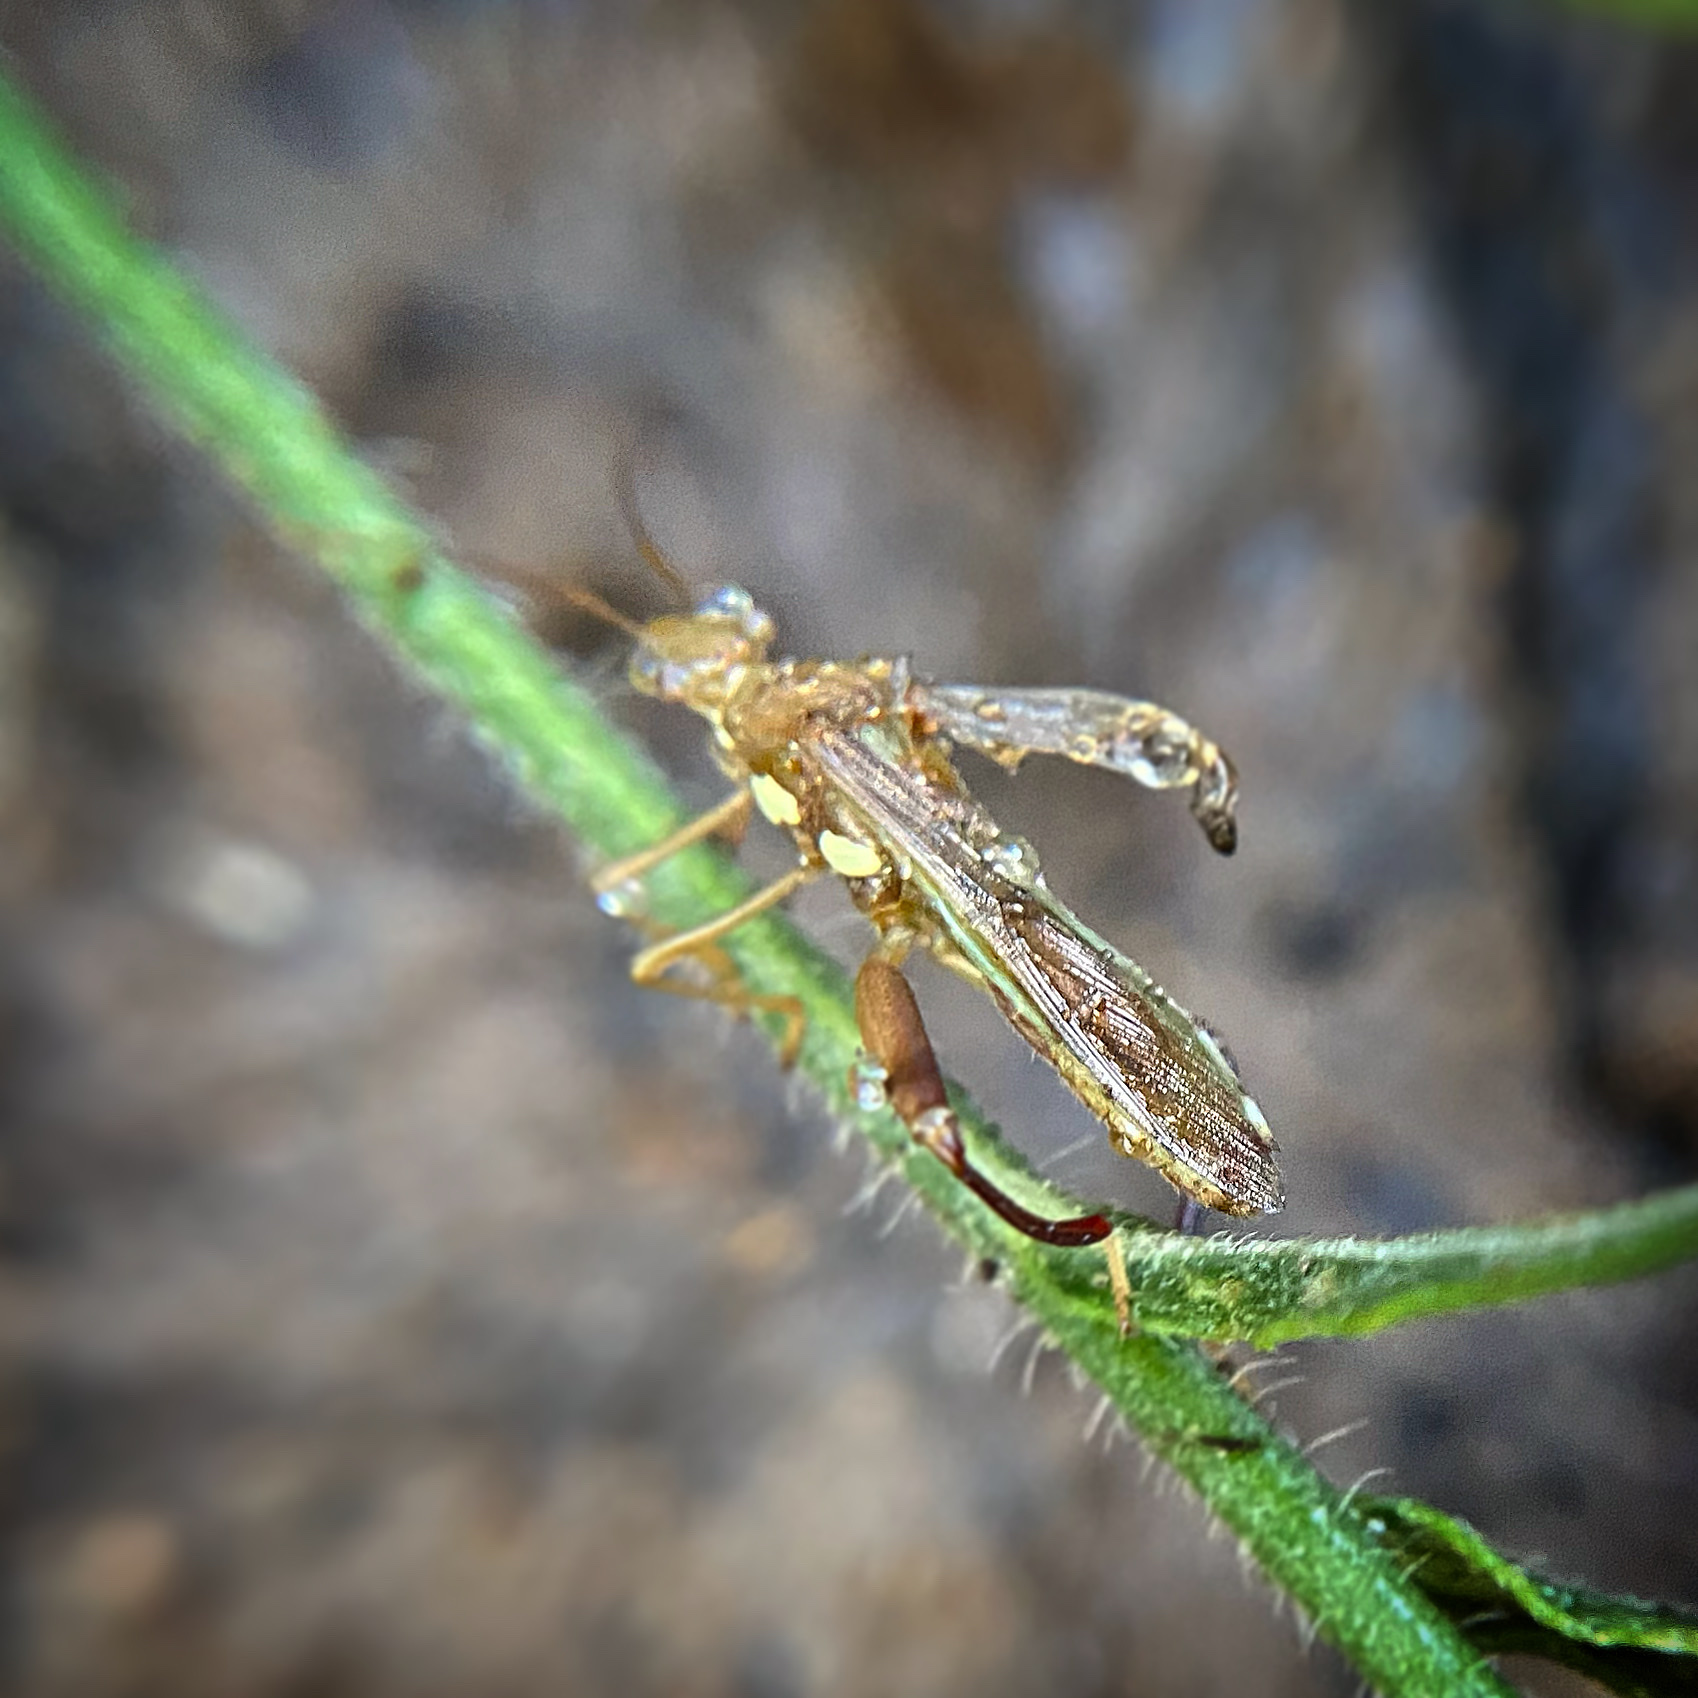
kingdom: Animalia
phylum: Arthropoda
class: Insecta
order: Hemiptera
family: Alydidae
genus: Hyalymenus
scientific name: Hyalymenus tarsatus
